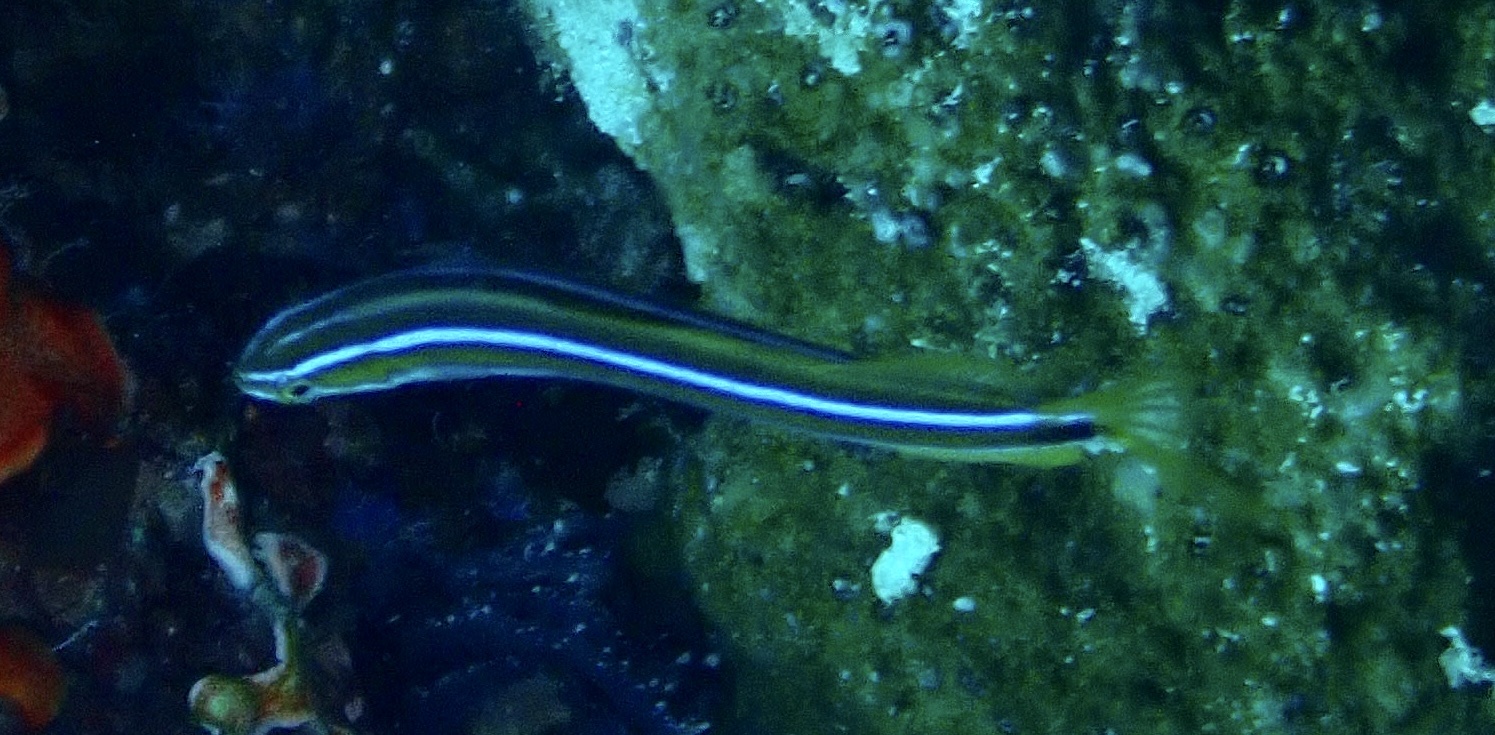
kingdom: Animalia
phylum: Chordata
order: Perciformes
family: Blenniidae
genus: Plagiotremus
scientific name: Plagiotremus rhinorhynchos
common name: Bluestriped fangblenny
